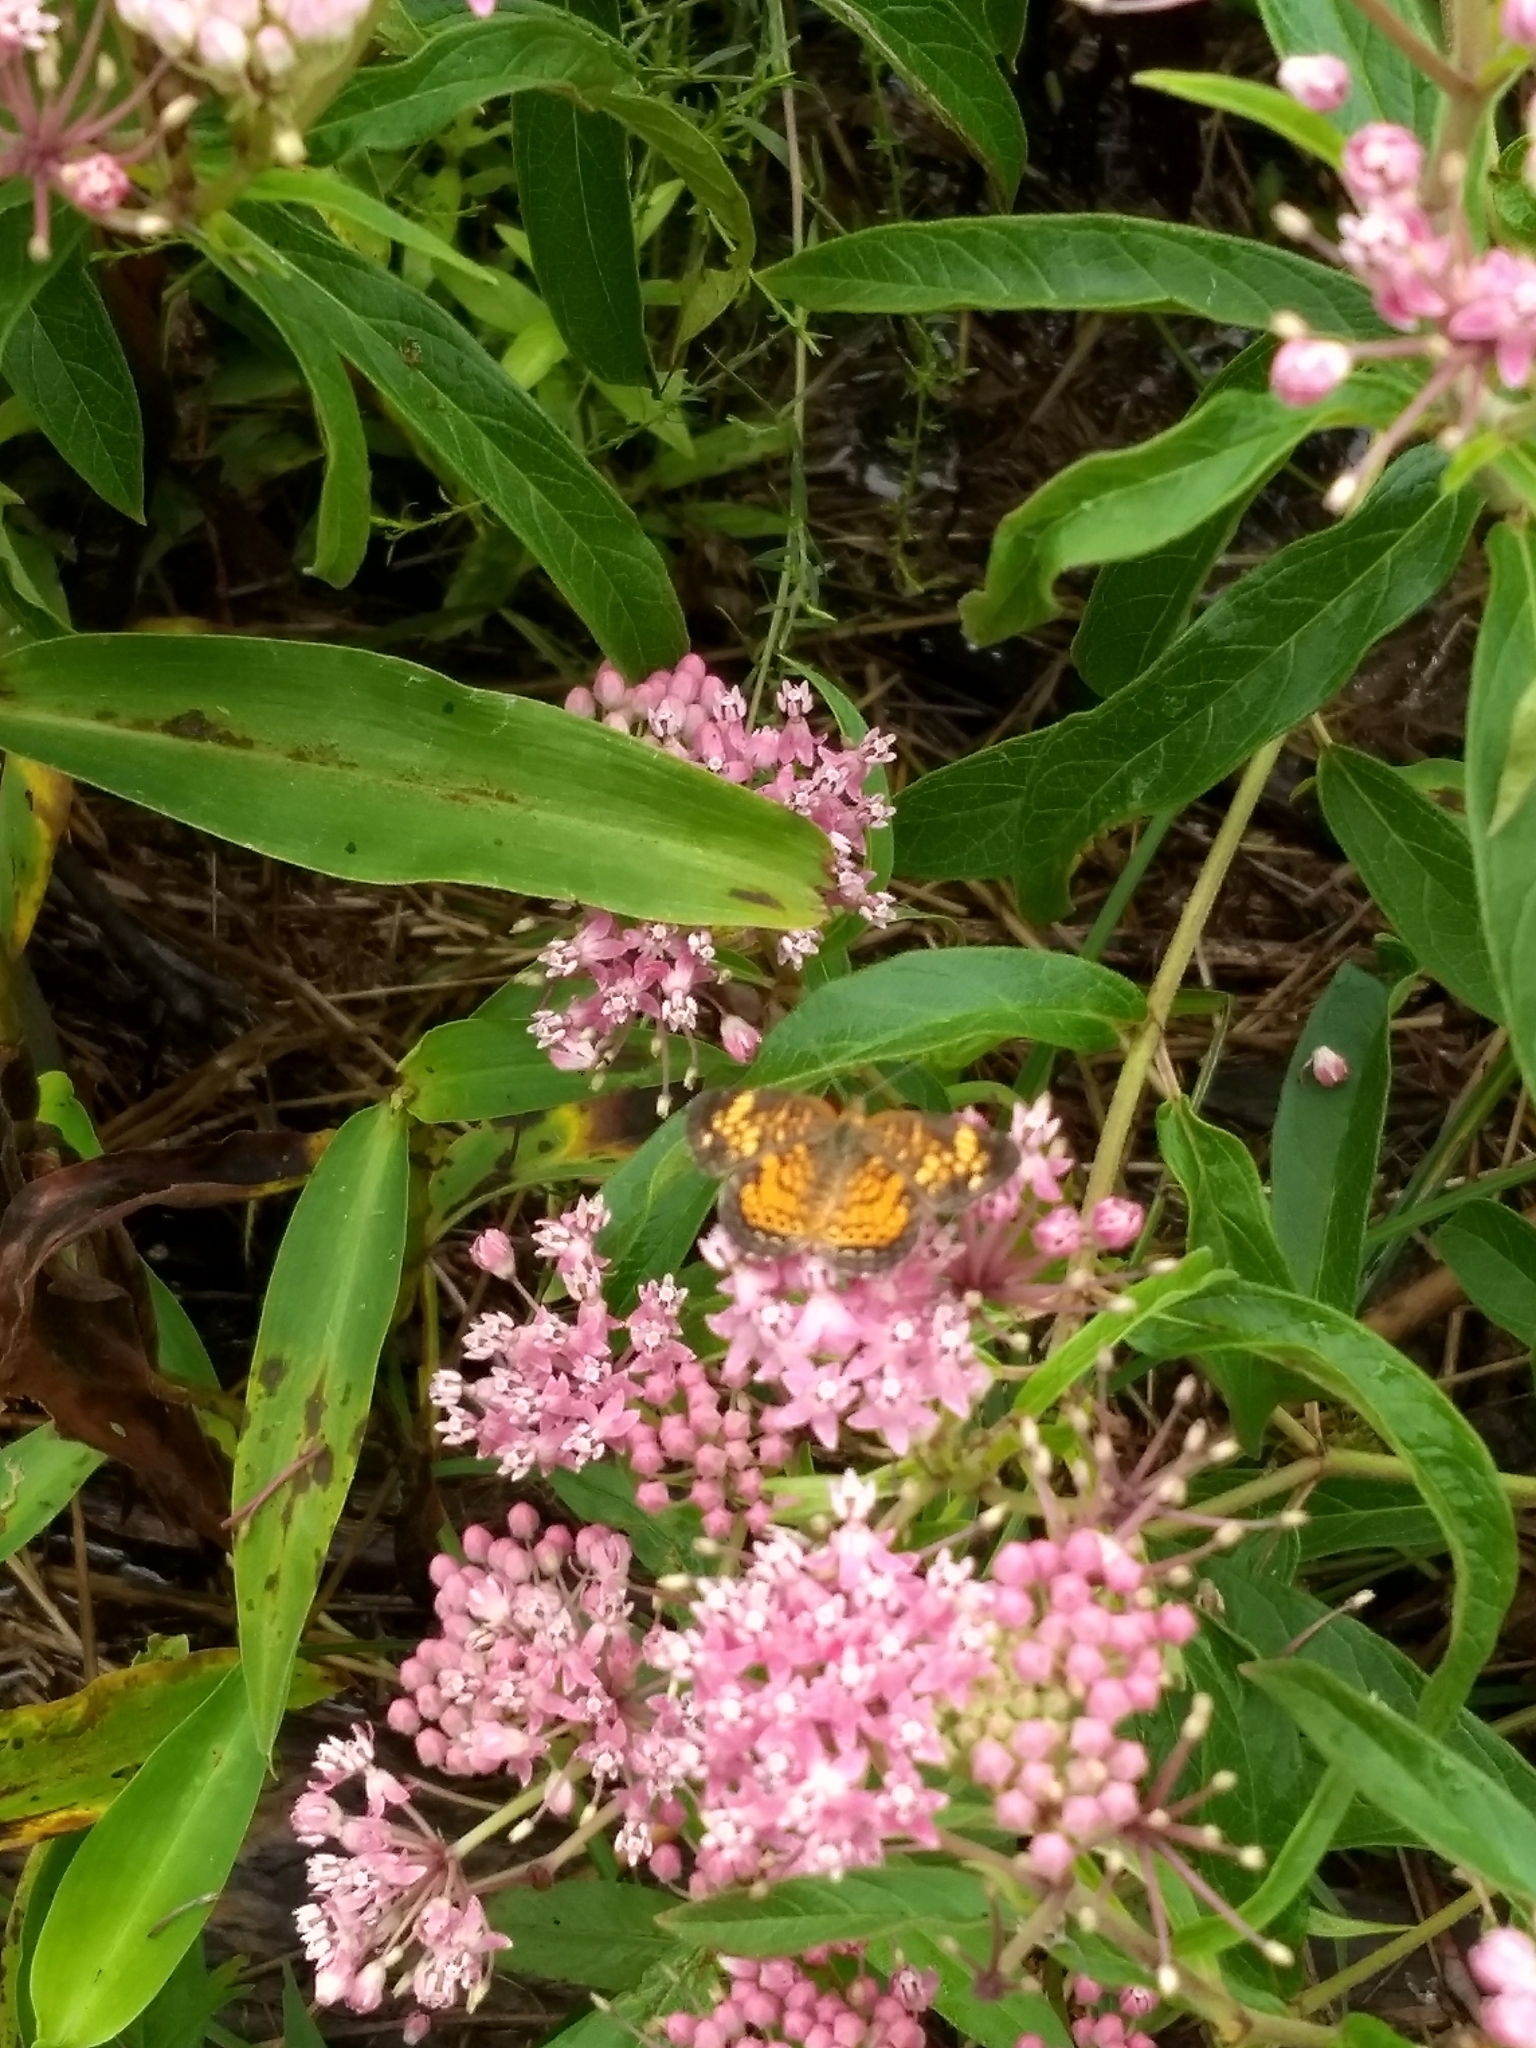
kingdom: Animalia
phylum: Arthropoda
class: Insecta
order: Lepidoptera
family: Nymphalidae
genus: Phyciodes
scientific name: Phyciodes tharos
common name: Pearl crescent
